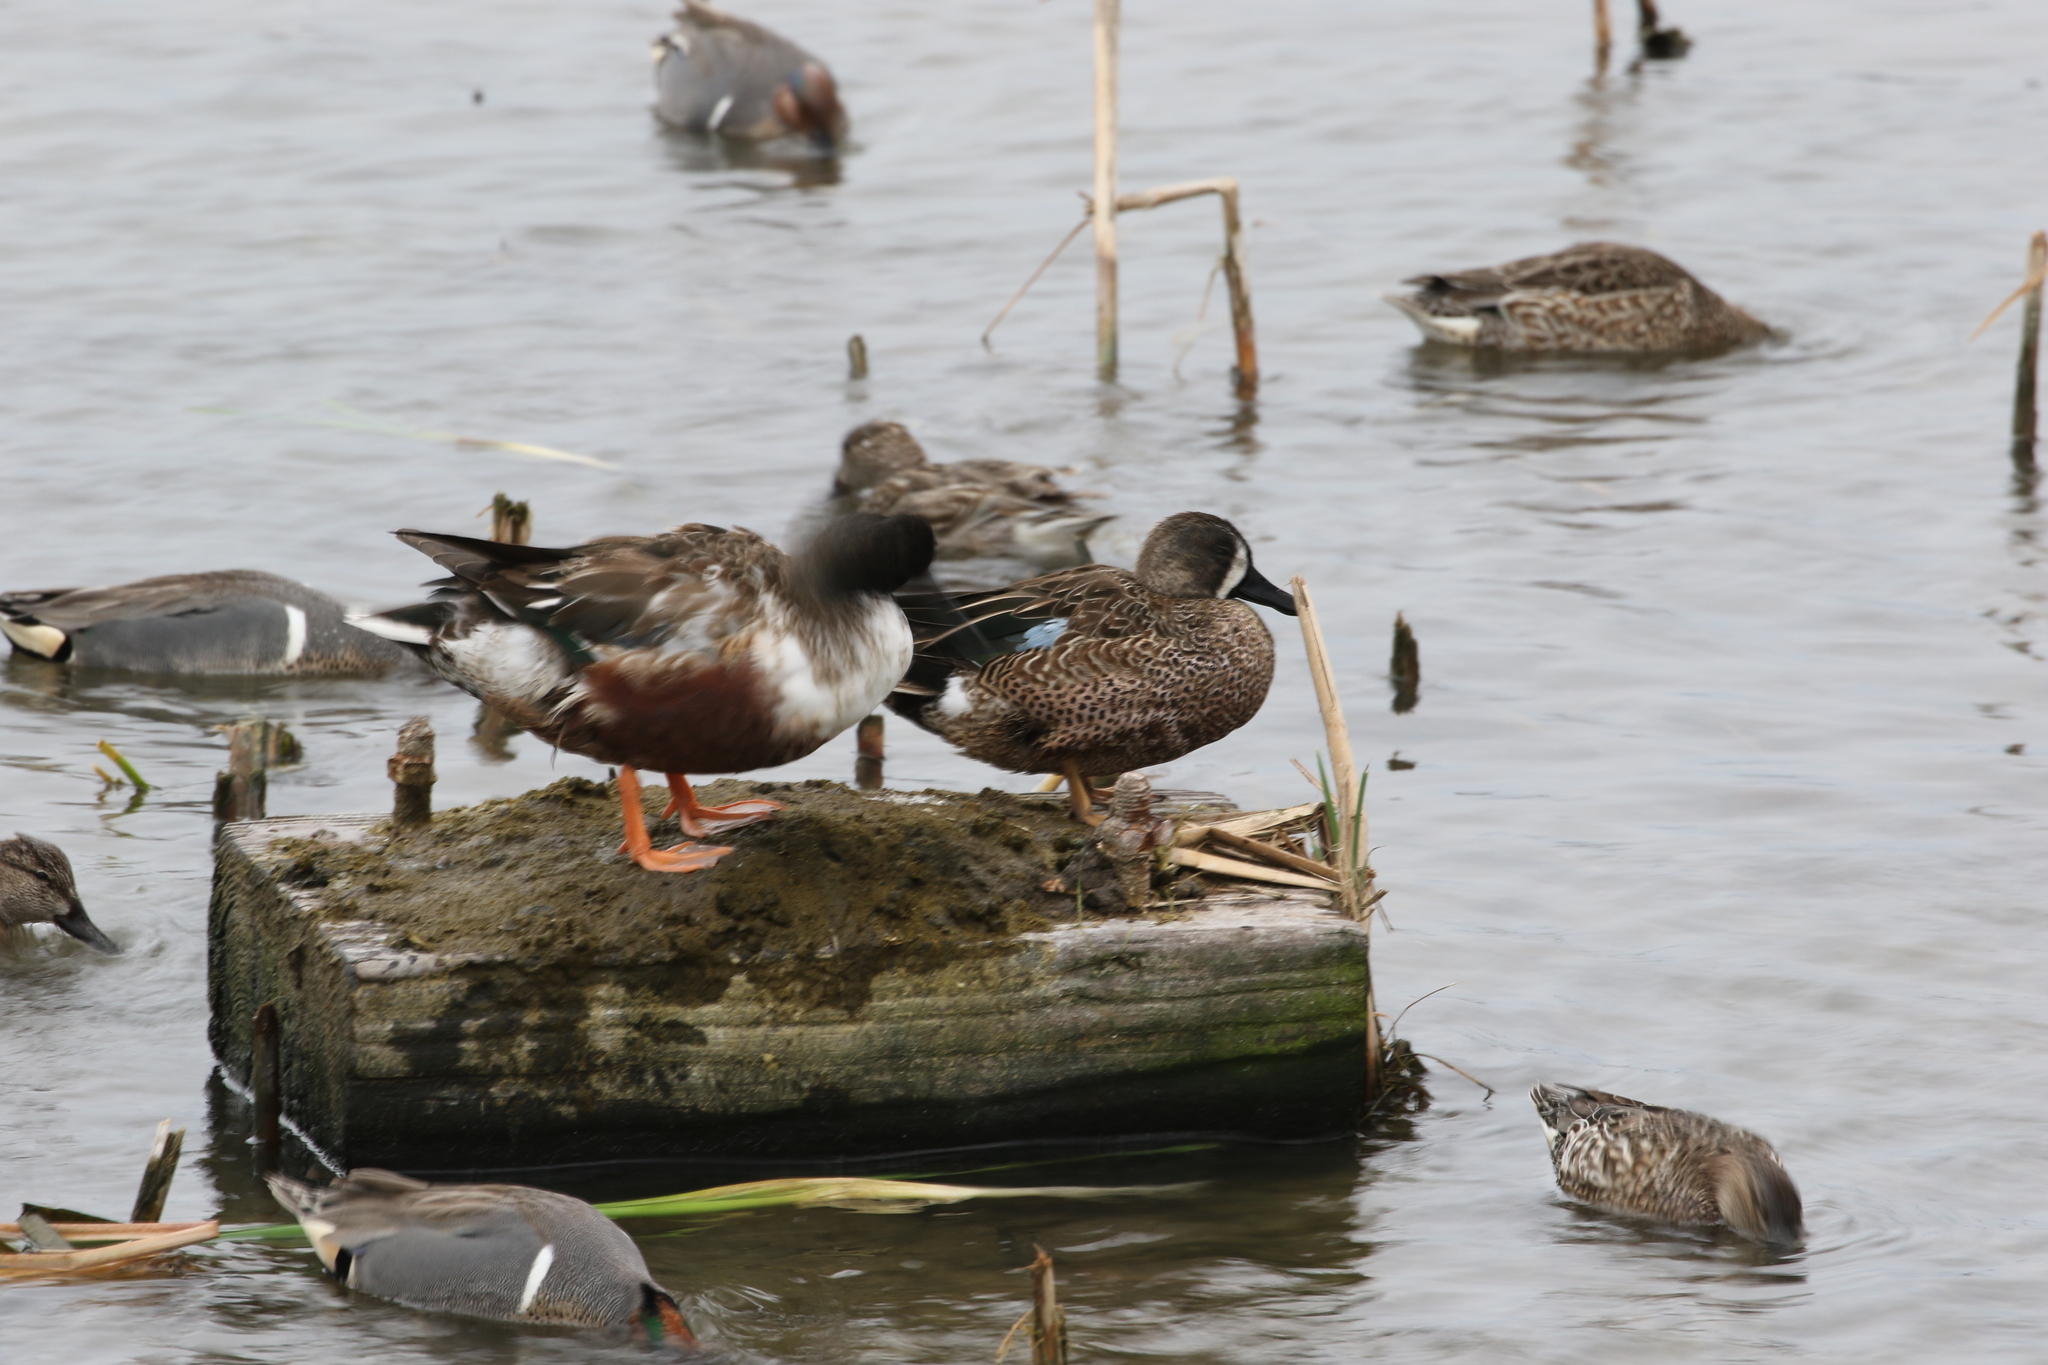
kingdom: Animalia
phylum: Chordata
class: Aves
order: Anseriformes
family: Anatidae
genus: Spatula
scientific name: Spatula clypeata
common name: Northern shoveler
